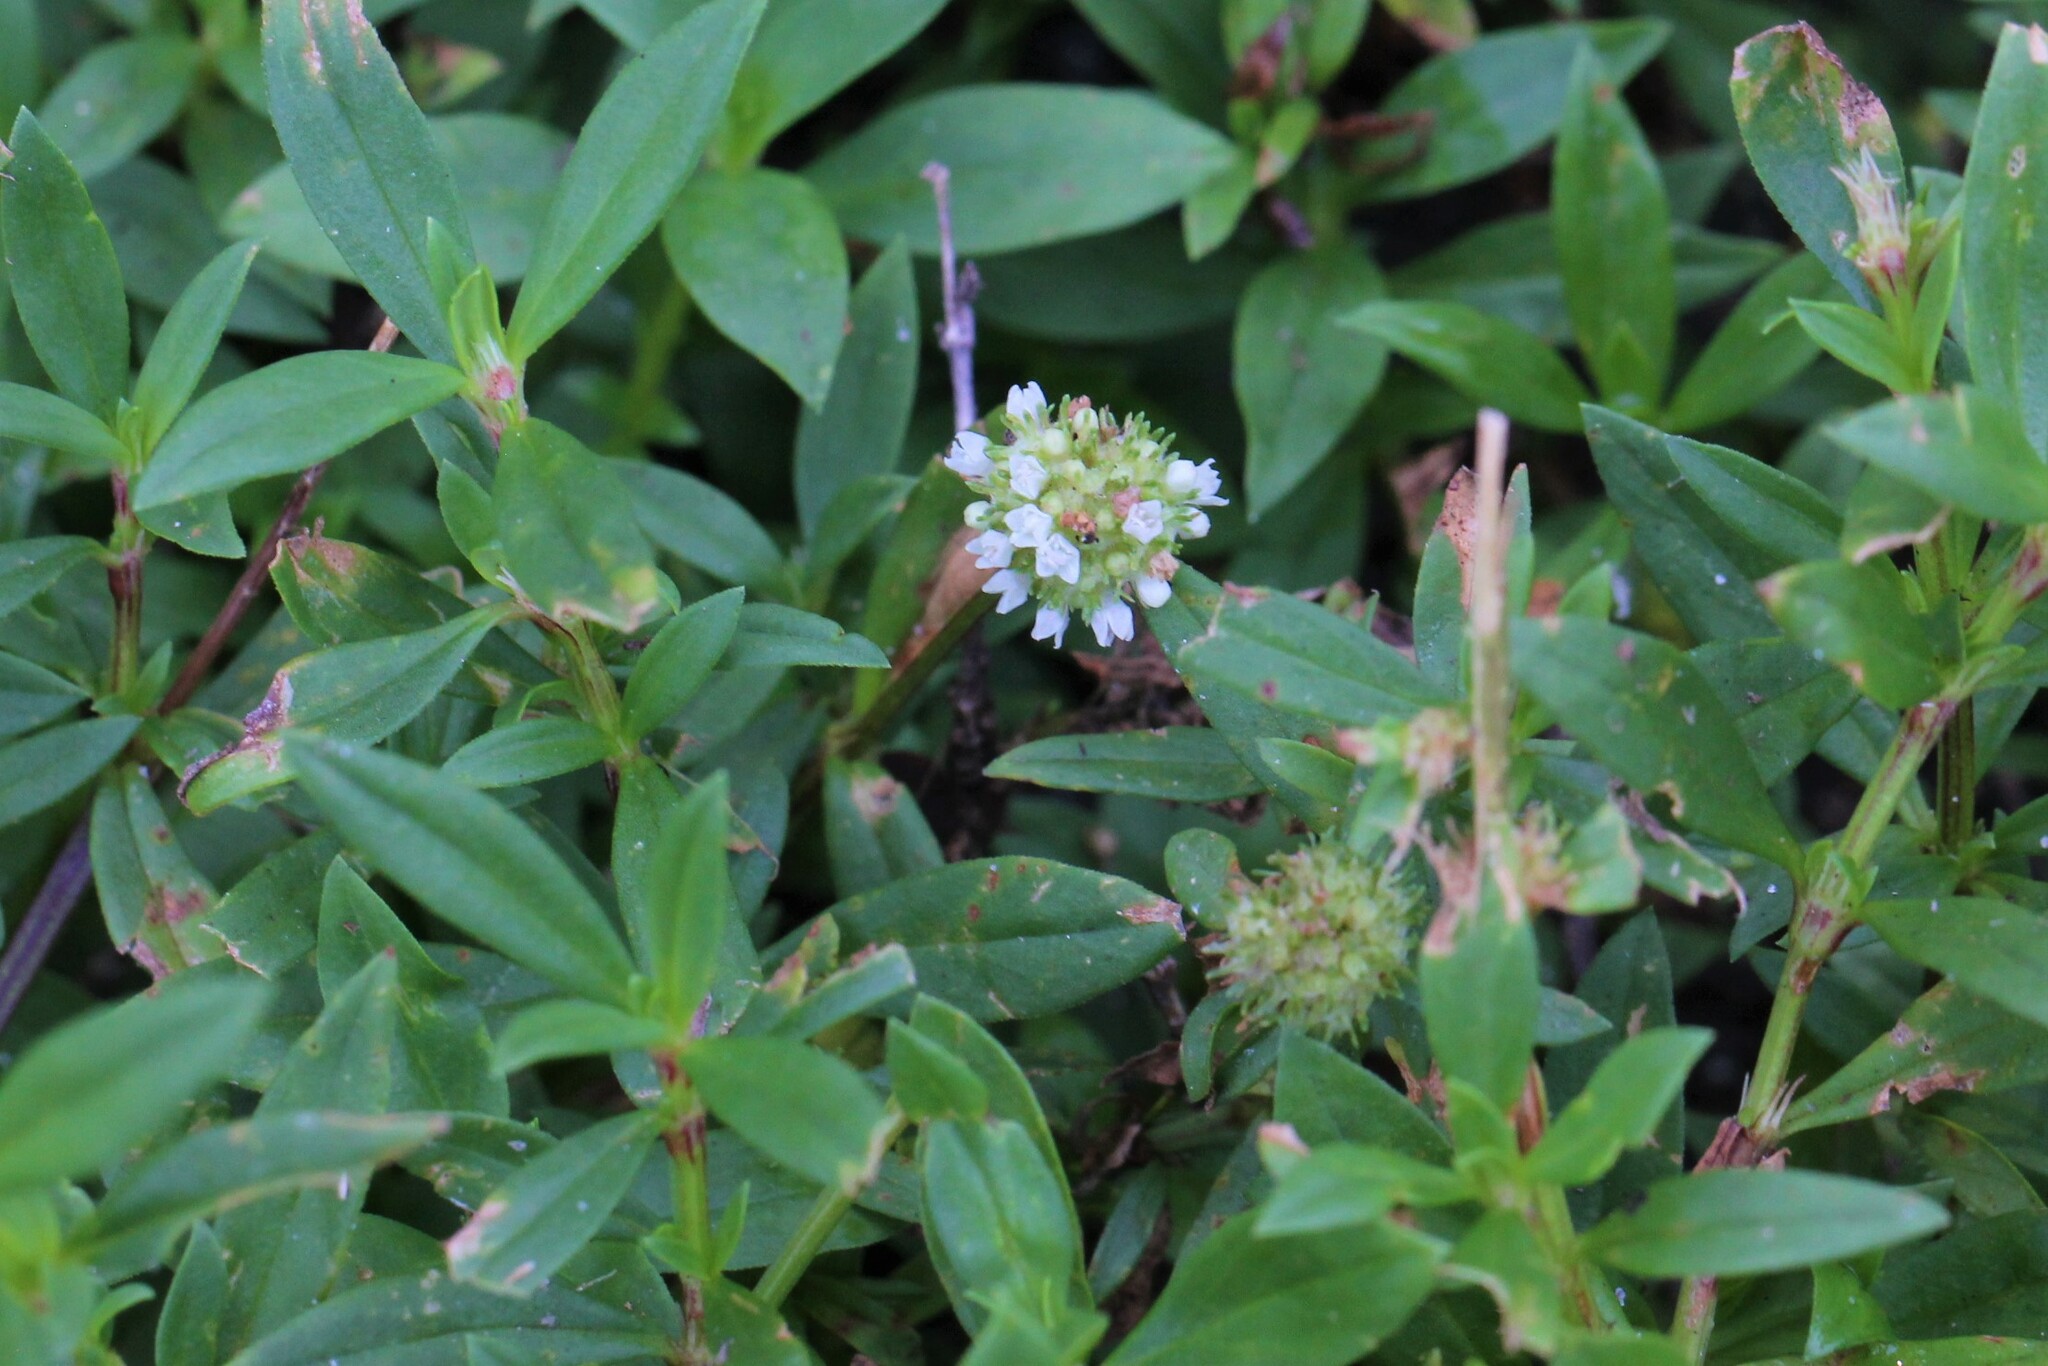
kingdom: Plantae
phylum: Tracheophyta
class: Magnoliopsida
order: Gentianales
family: Rubiaceae
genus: Spermacoce
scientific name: Spermacoce verticillata
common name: Shrubby false buttonweed
